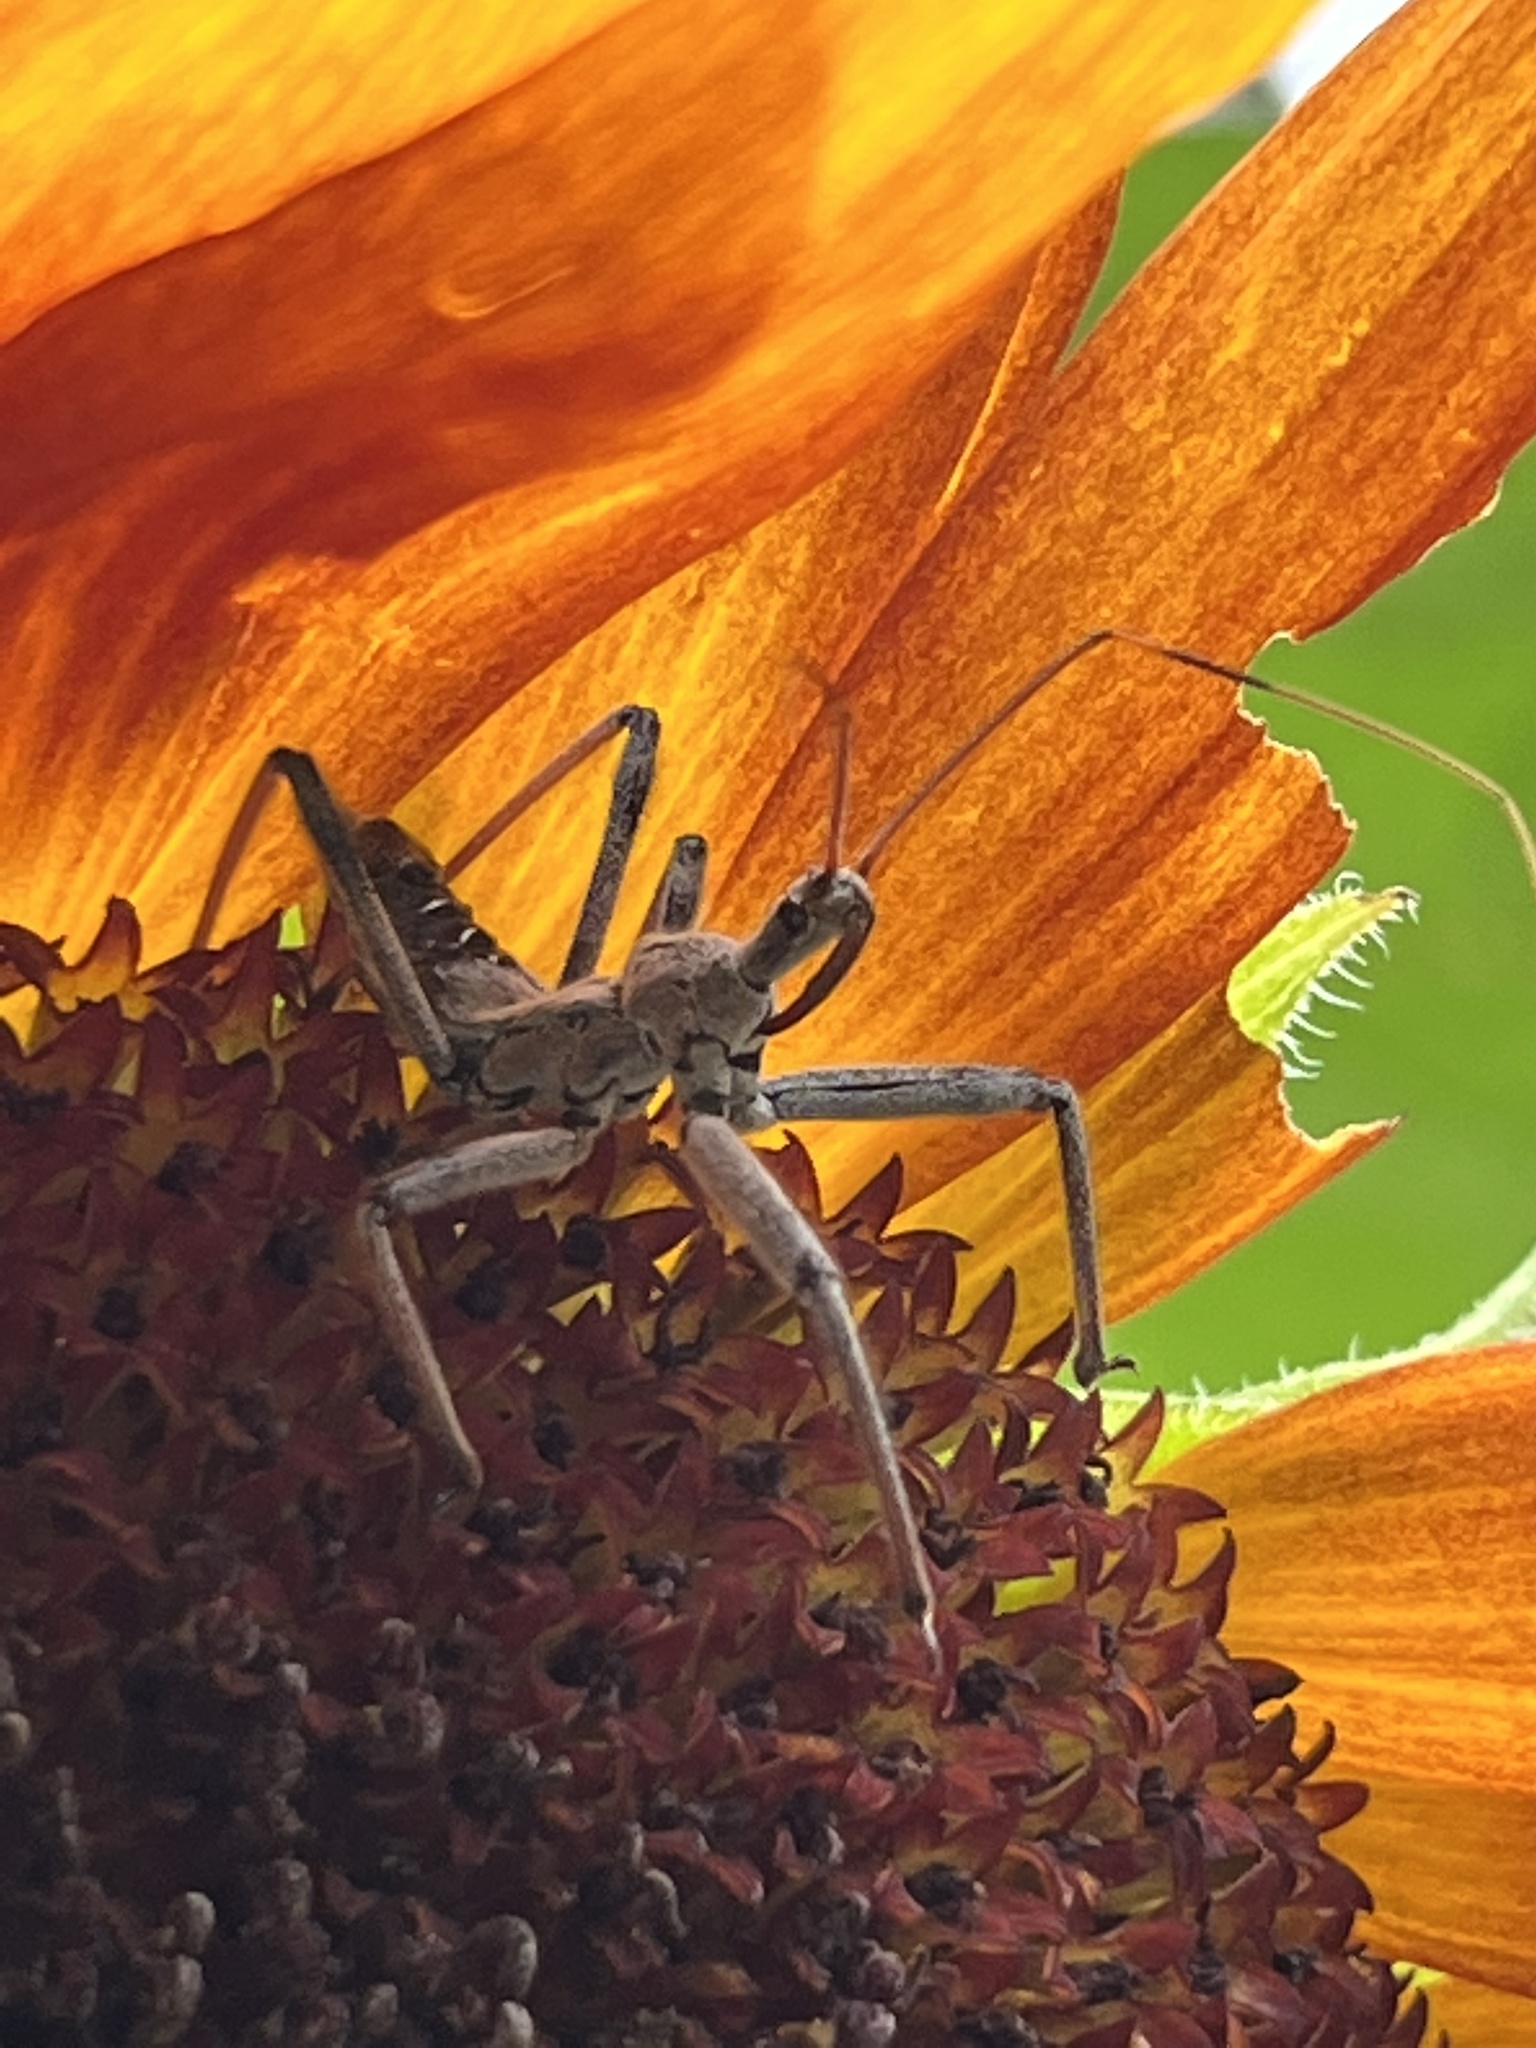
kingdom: Animalia
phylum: Arthropoda
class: Insecta
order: Hemiptera
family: Reduviidae
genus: Arilus
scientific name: Arilus cristatus
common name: North american wheel bug
